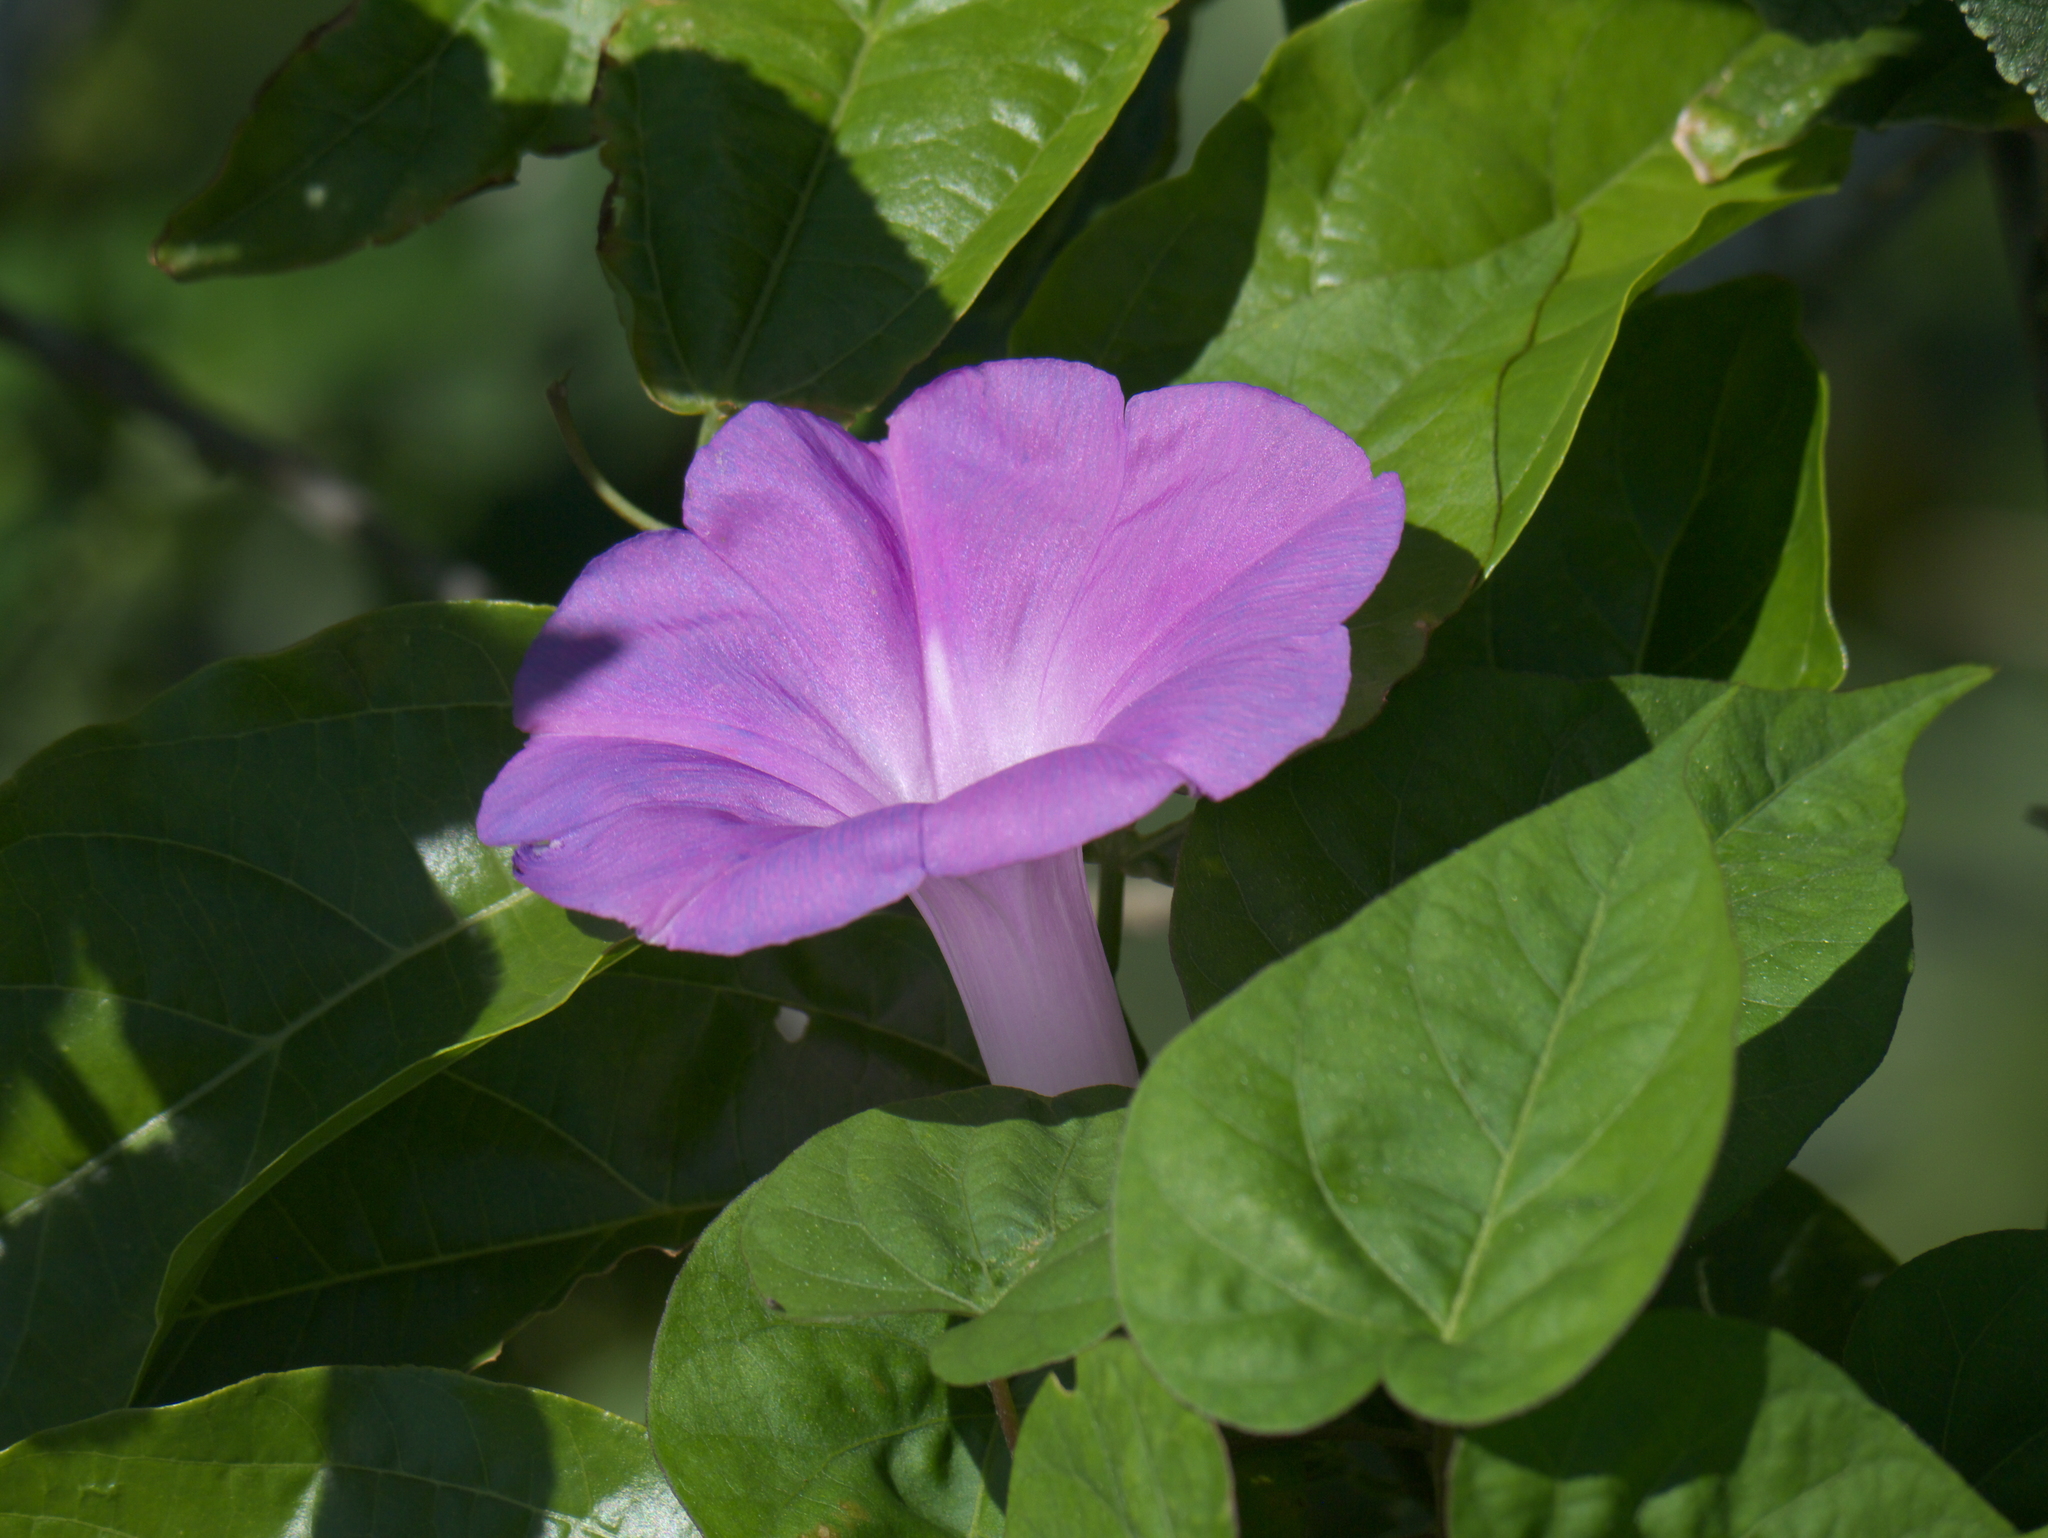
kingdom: Plantae
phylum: Tracheophyta
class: Magnoliopsida
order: Solanales
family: Convolvulaceae
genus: Ipomoea
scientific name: Ipomoea indica
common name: Blue dawnflower
